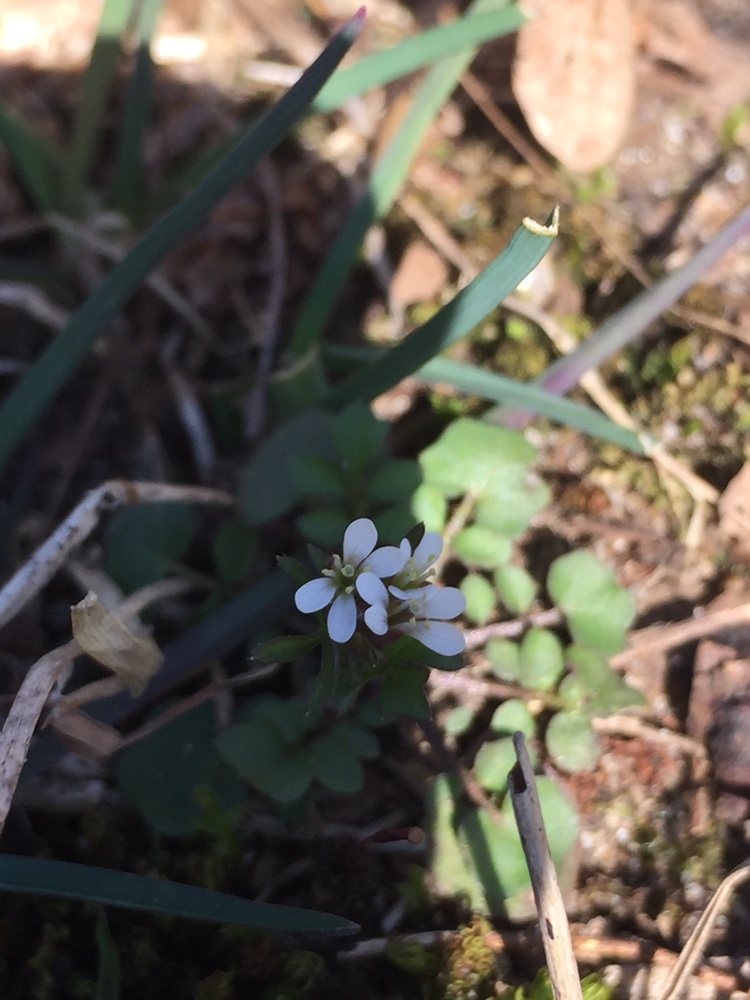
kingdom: Plantae
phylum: Tracheophyta
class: Magnoliopsida
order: Brassicales
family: Brassicaceae
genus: Cardamine
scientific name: Cardamine hirsuta
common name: Hairy bittercress
